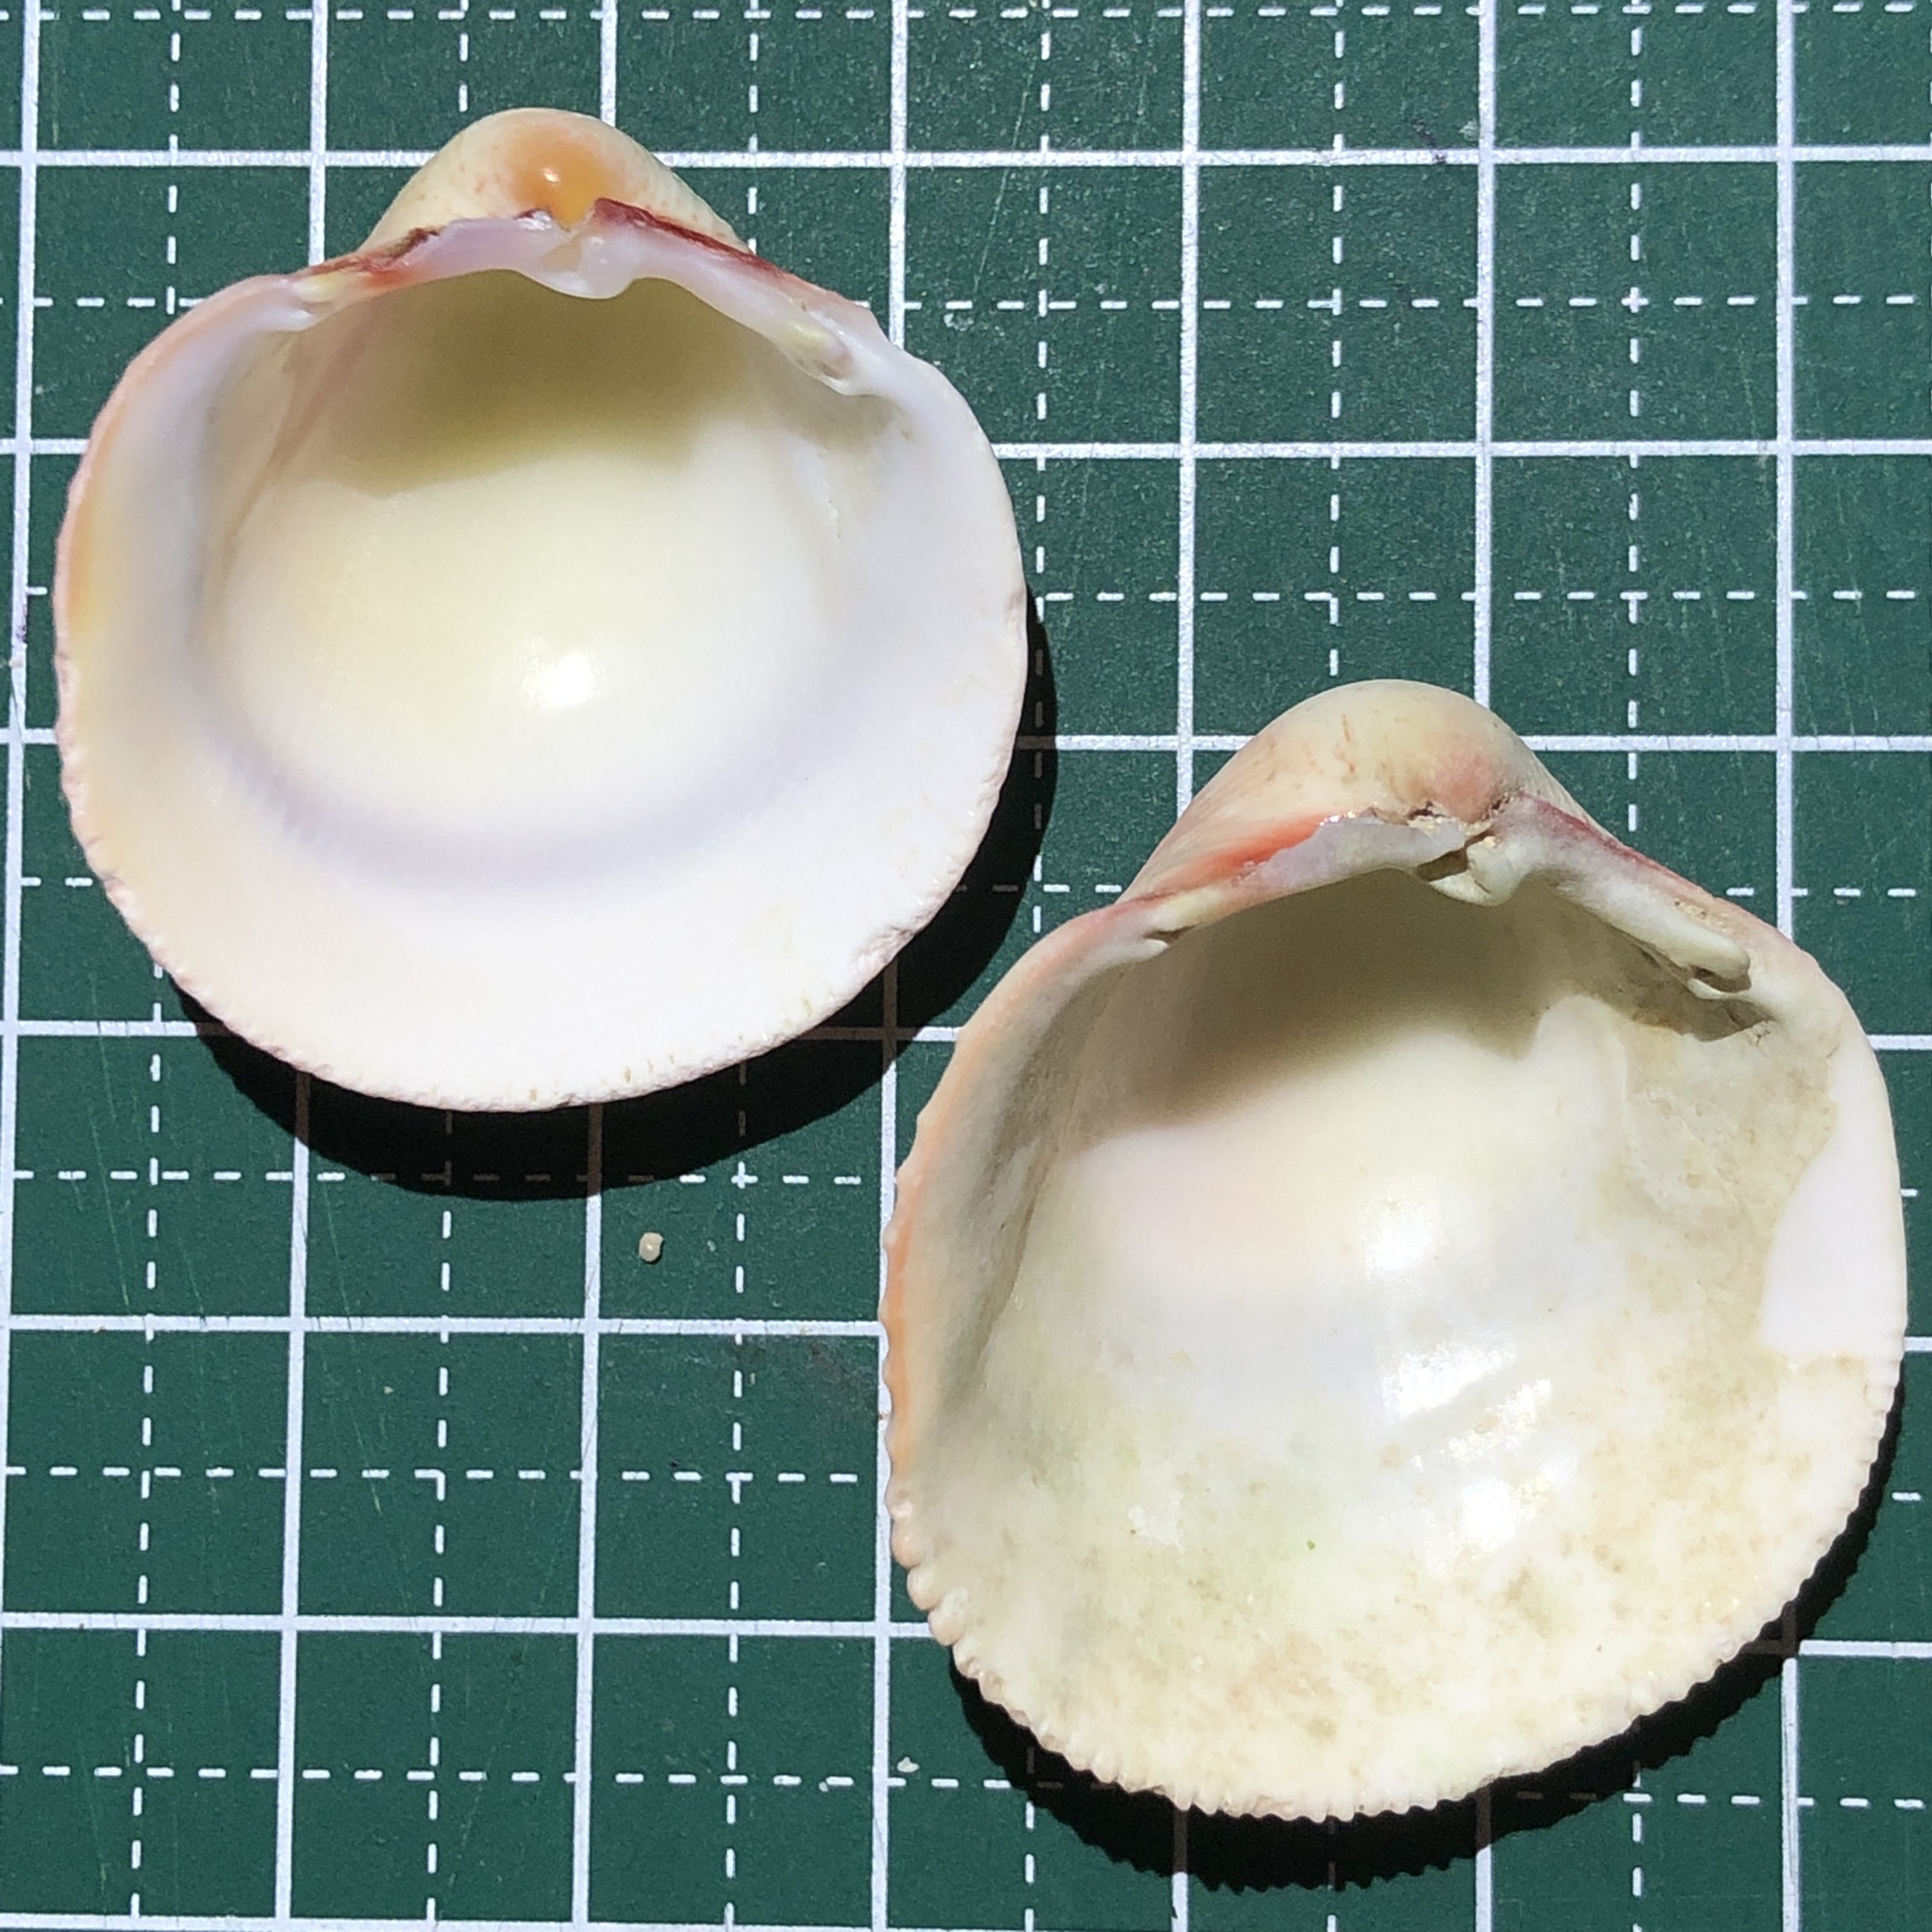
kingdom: Animalia
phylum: Mollusca
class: Bivalvia
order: Cardiida
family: Cardiidae
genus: Lyrocardium
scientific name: Lyrocardium lyratum
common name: Lyre cockle
